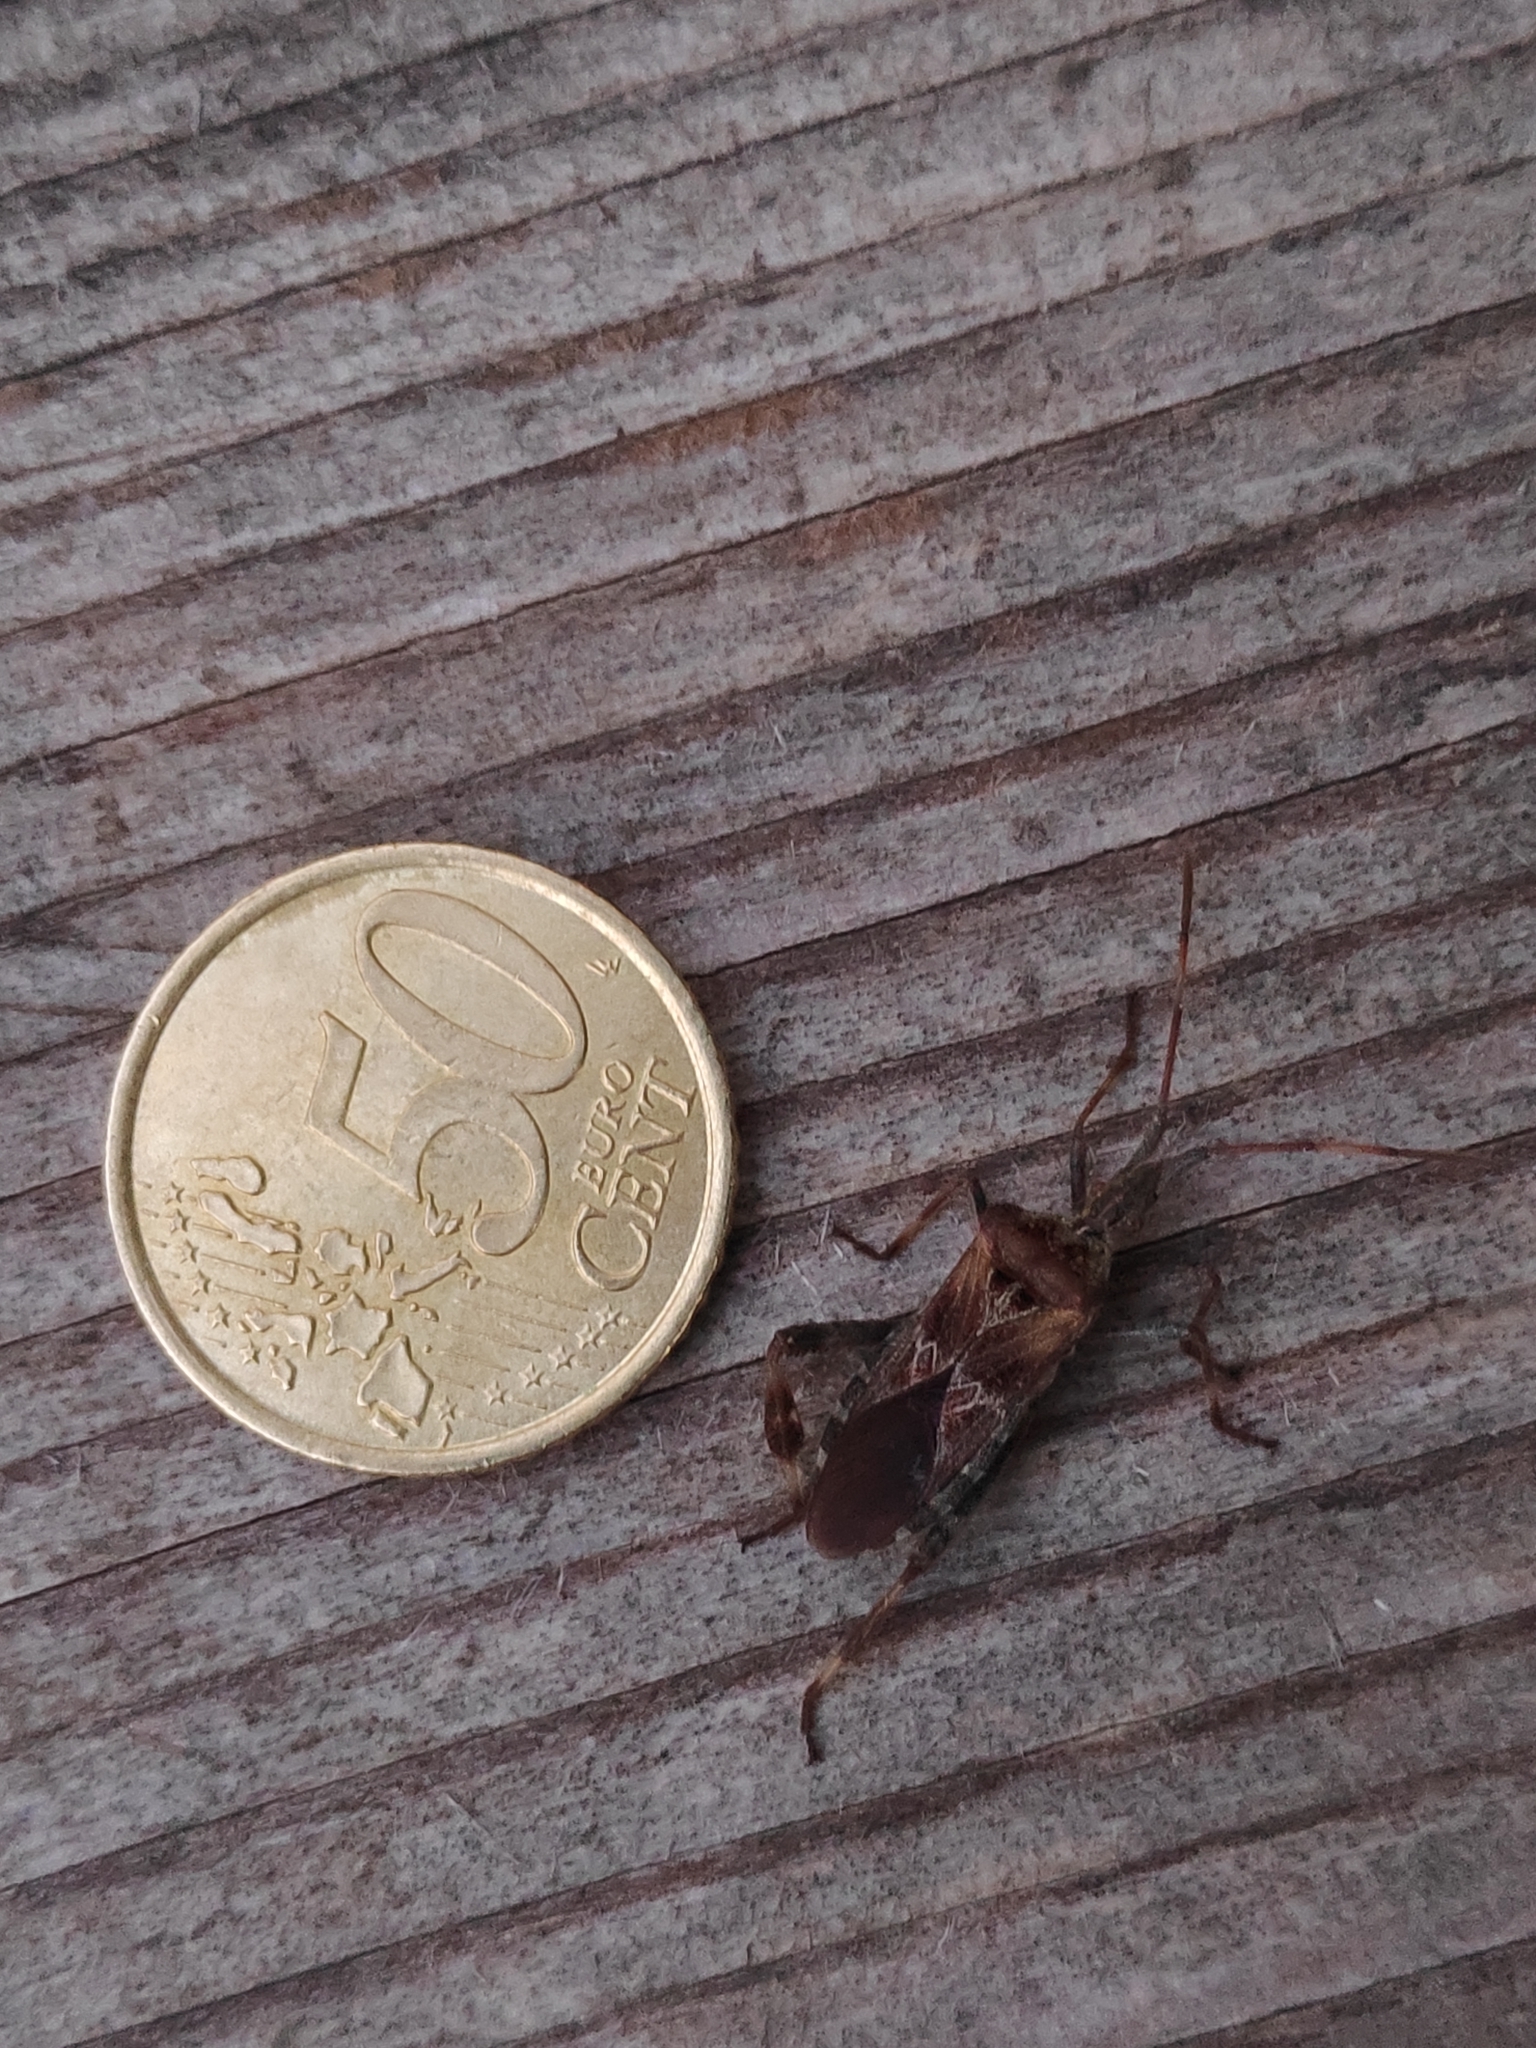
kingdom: Animalia
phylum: Arthropoda
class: Insecta
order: Hemiptera
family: Coreidae
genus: Leptoglossus
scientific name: Leptoglossus occidentalis
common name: Western conifer-seed bug
